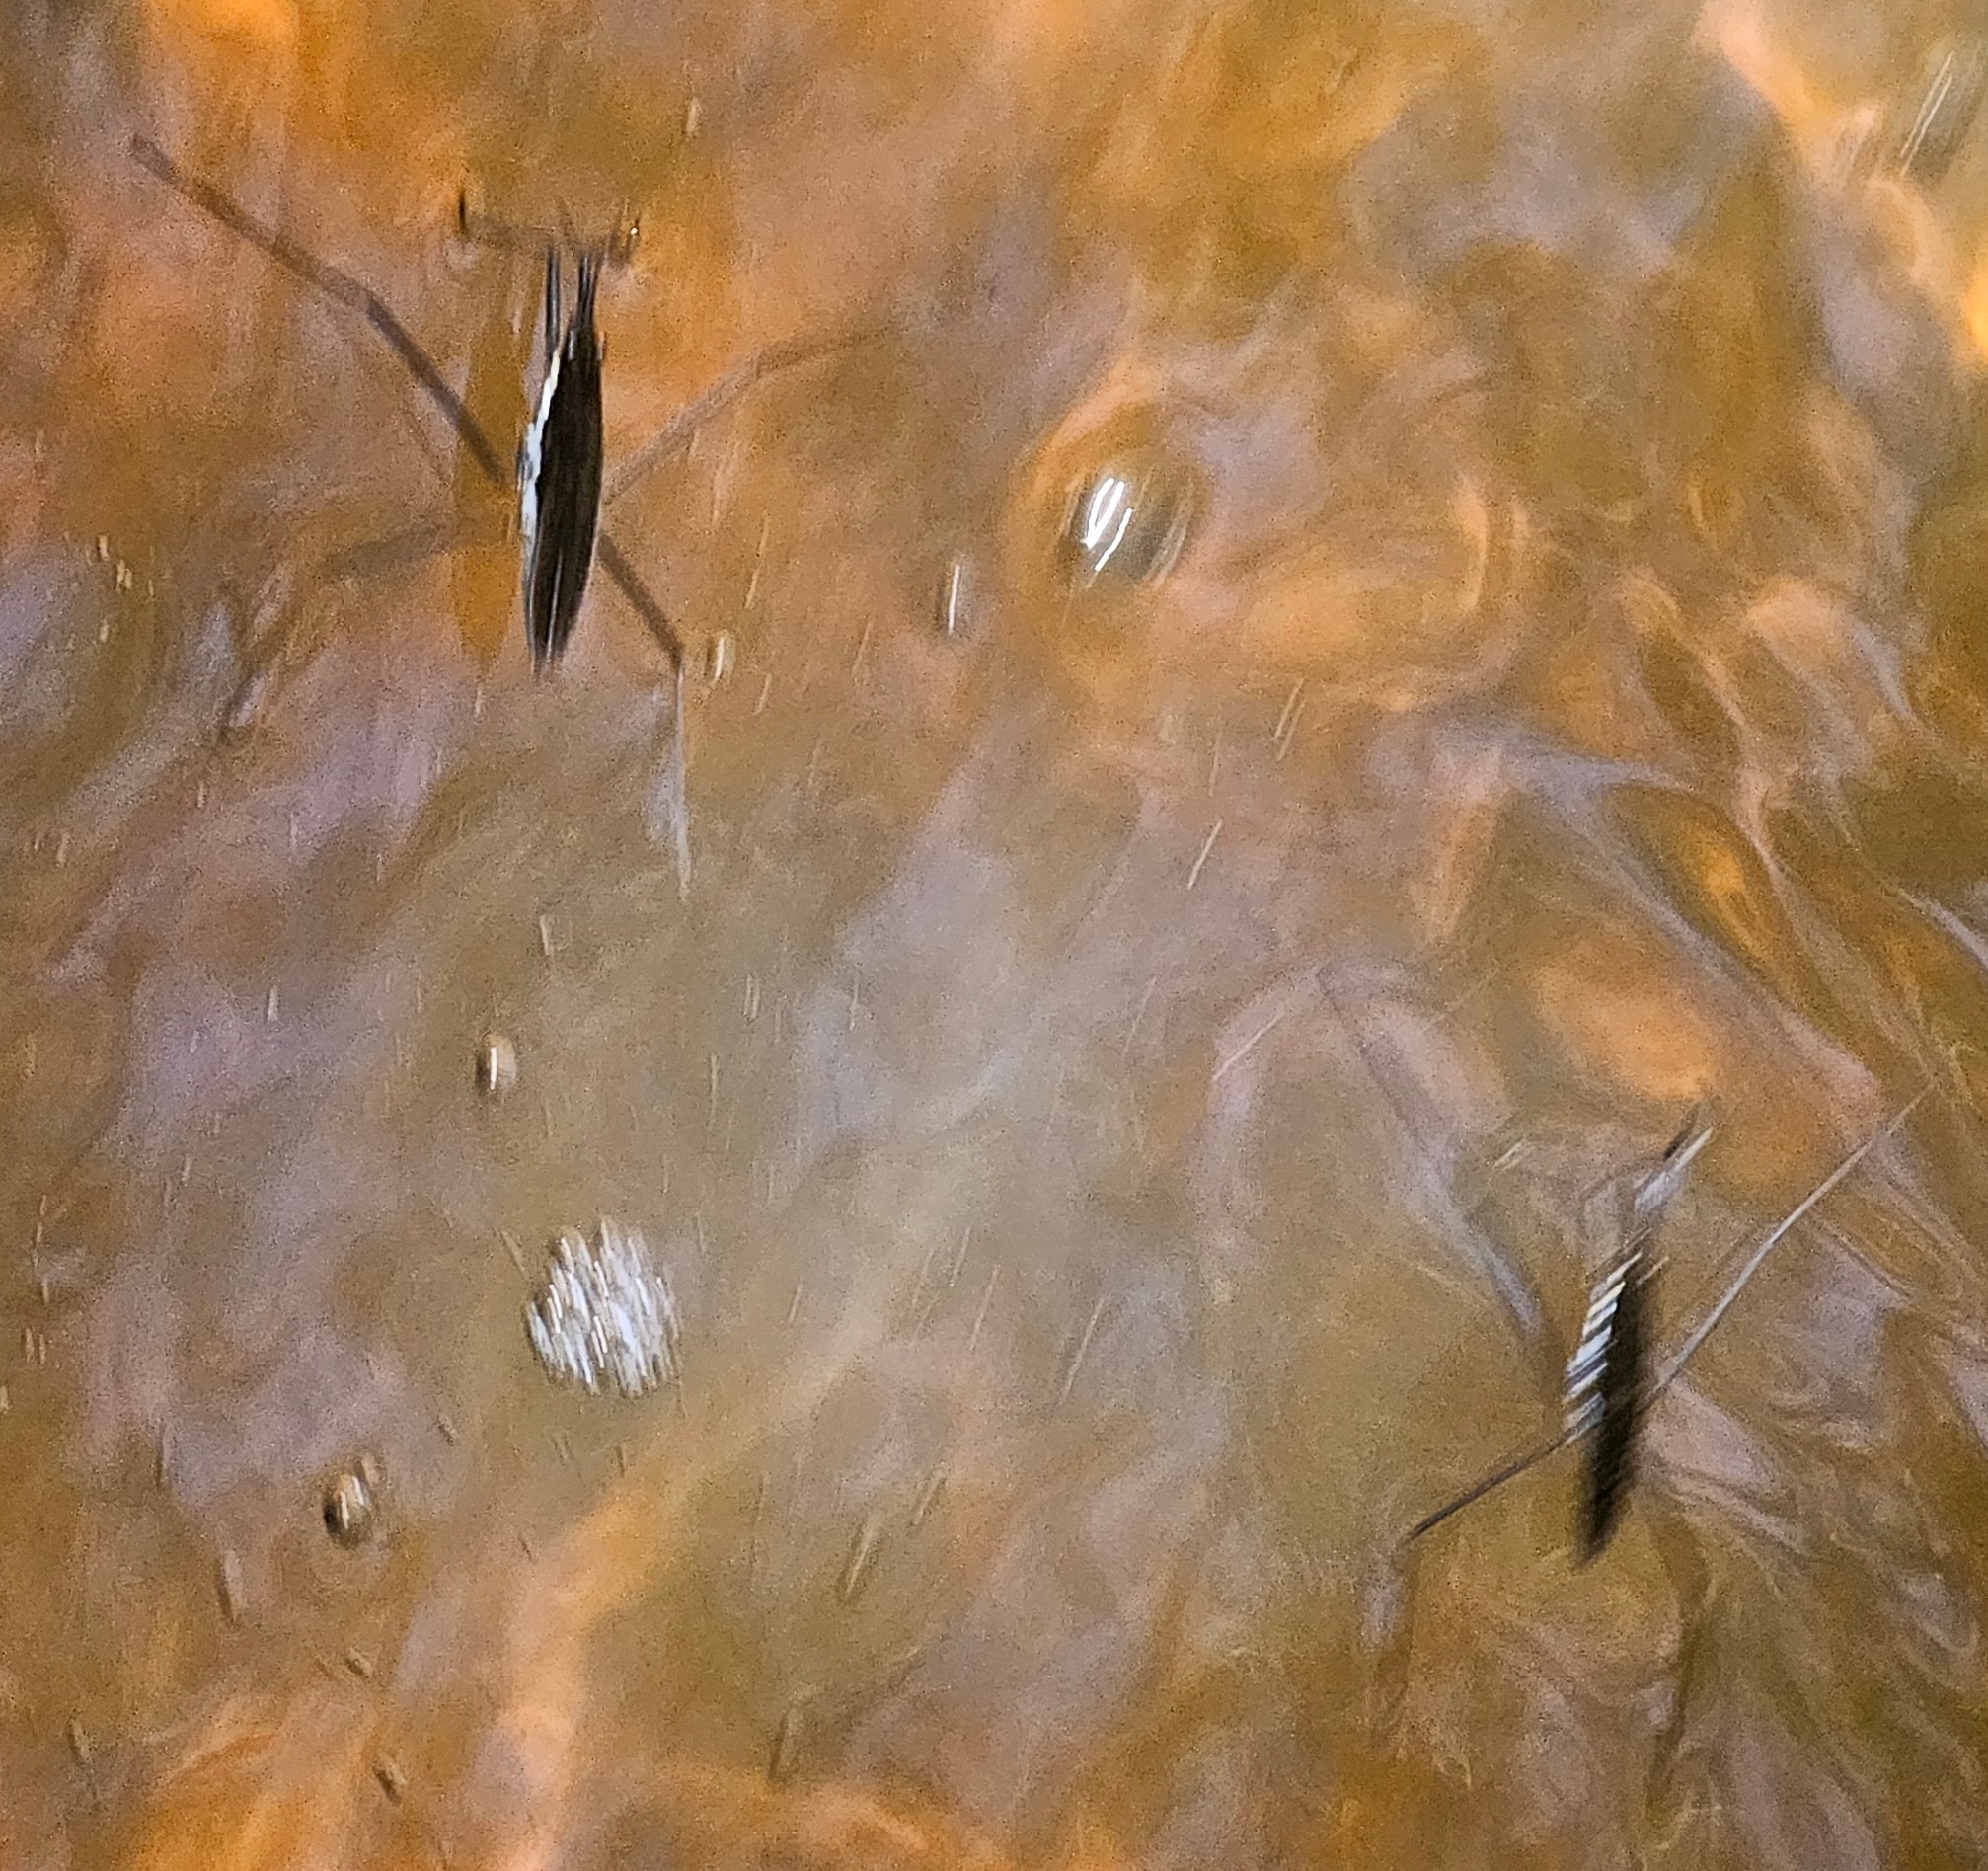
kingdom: Animalia
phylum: Arthropoda
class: Insecta
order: Hemiptera
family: Gerridae
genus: Aquarius
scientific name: Aquarius remigis
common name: Common water strider
